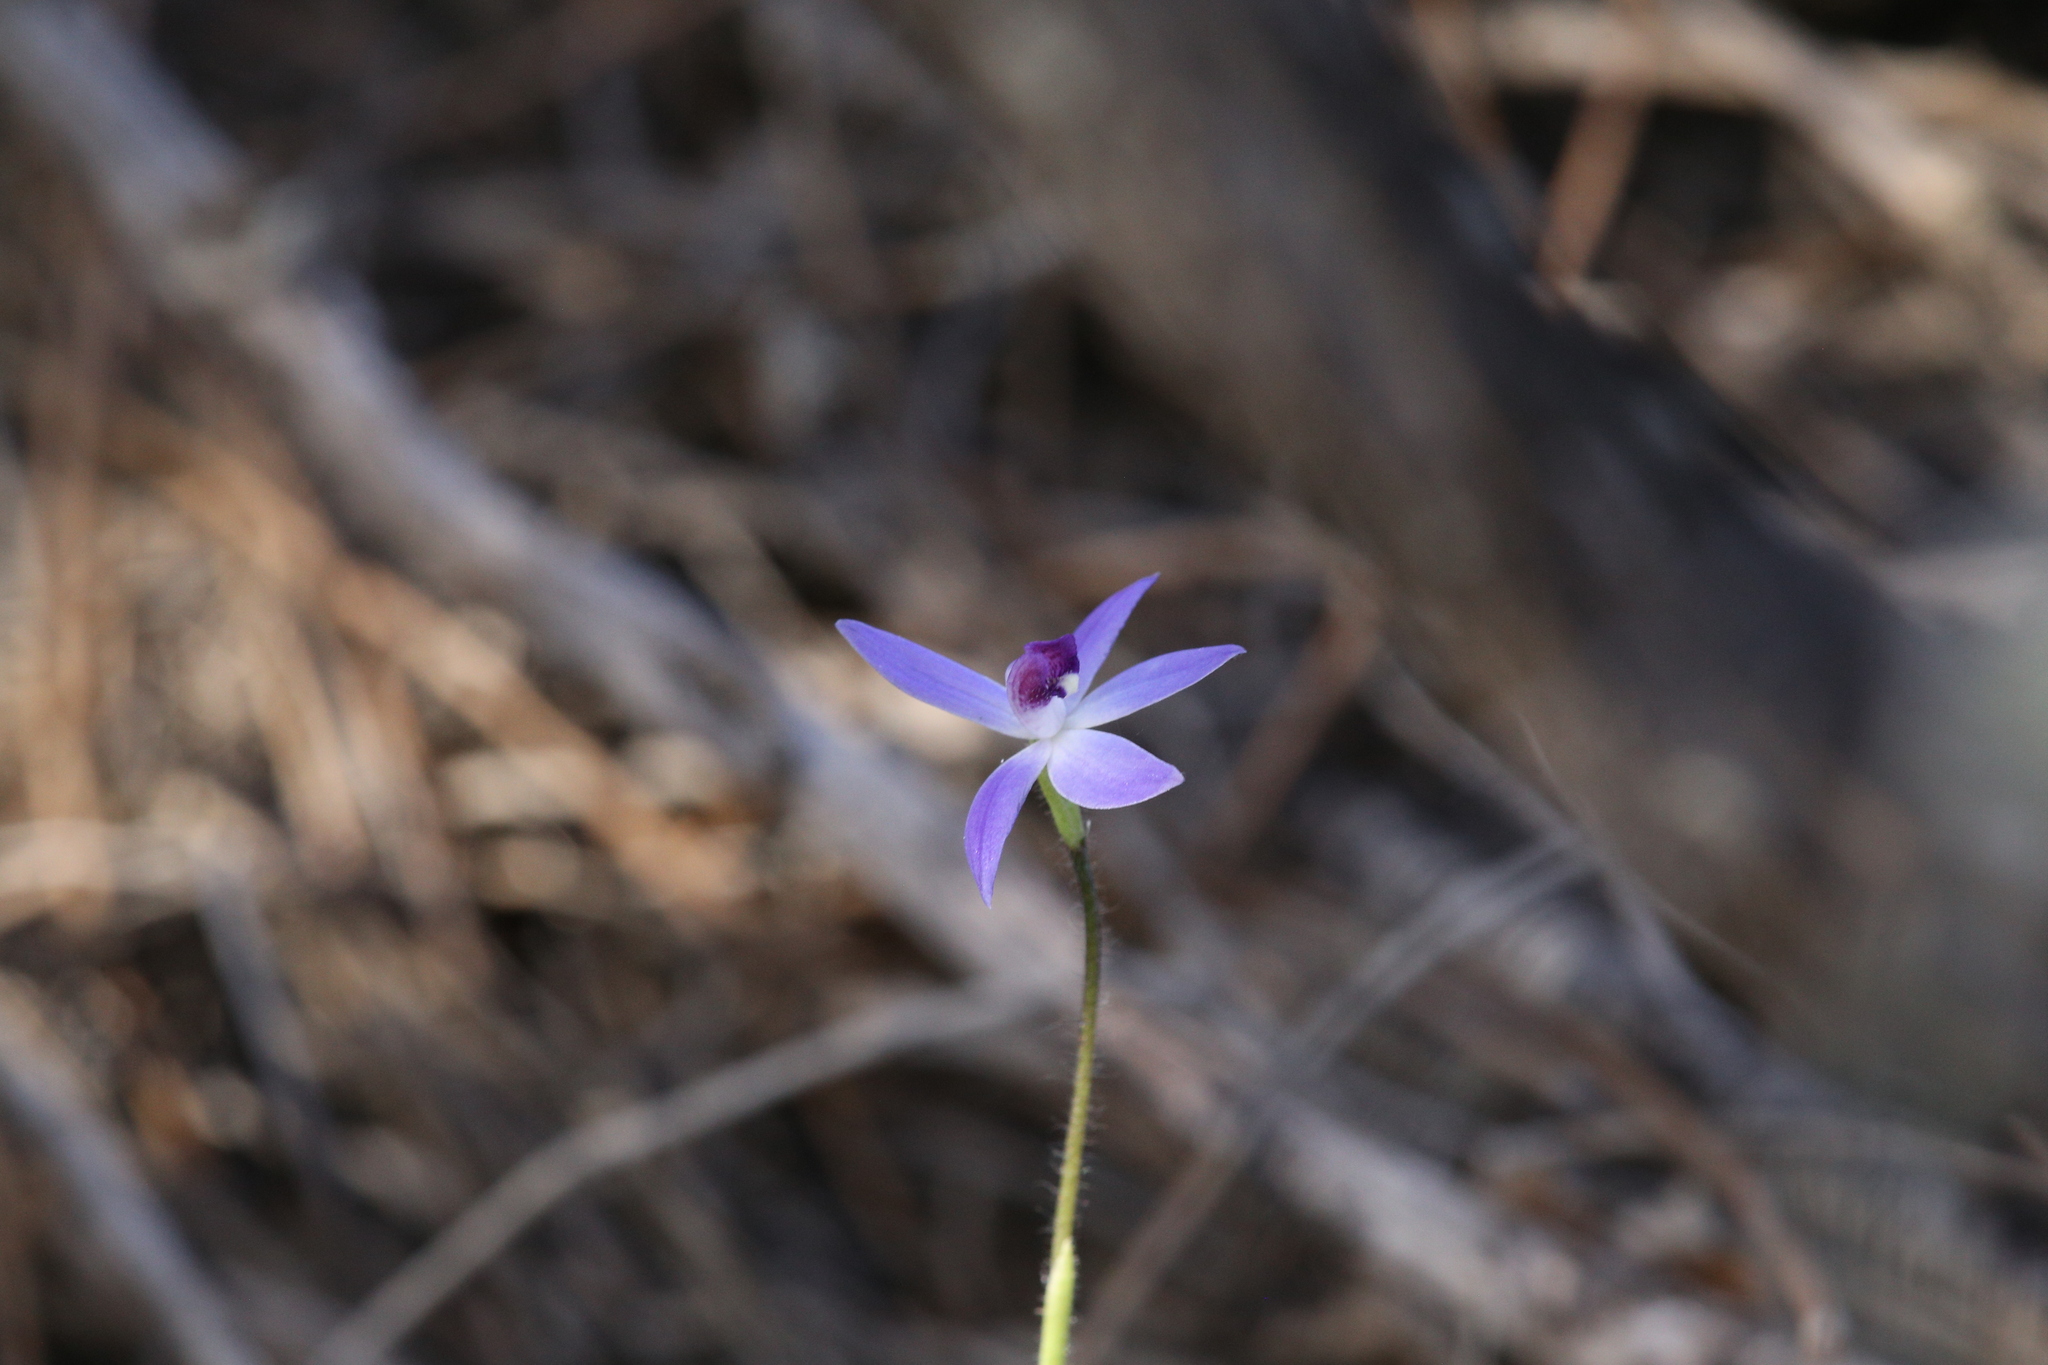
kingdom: Plantae
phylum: Tracheophyta
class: Liliopsida
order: Asparagales
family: Orchidaceae
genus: Caladenia
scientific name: Caladenia amplexans
